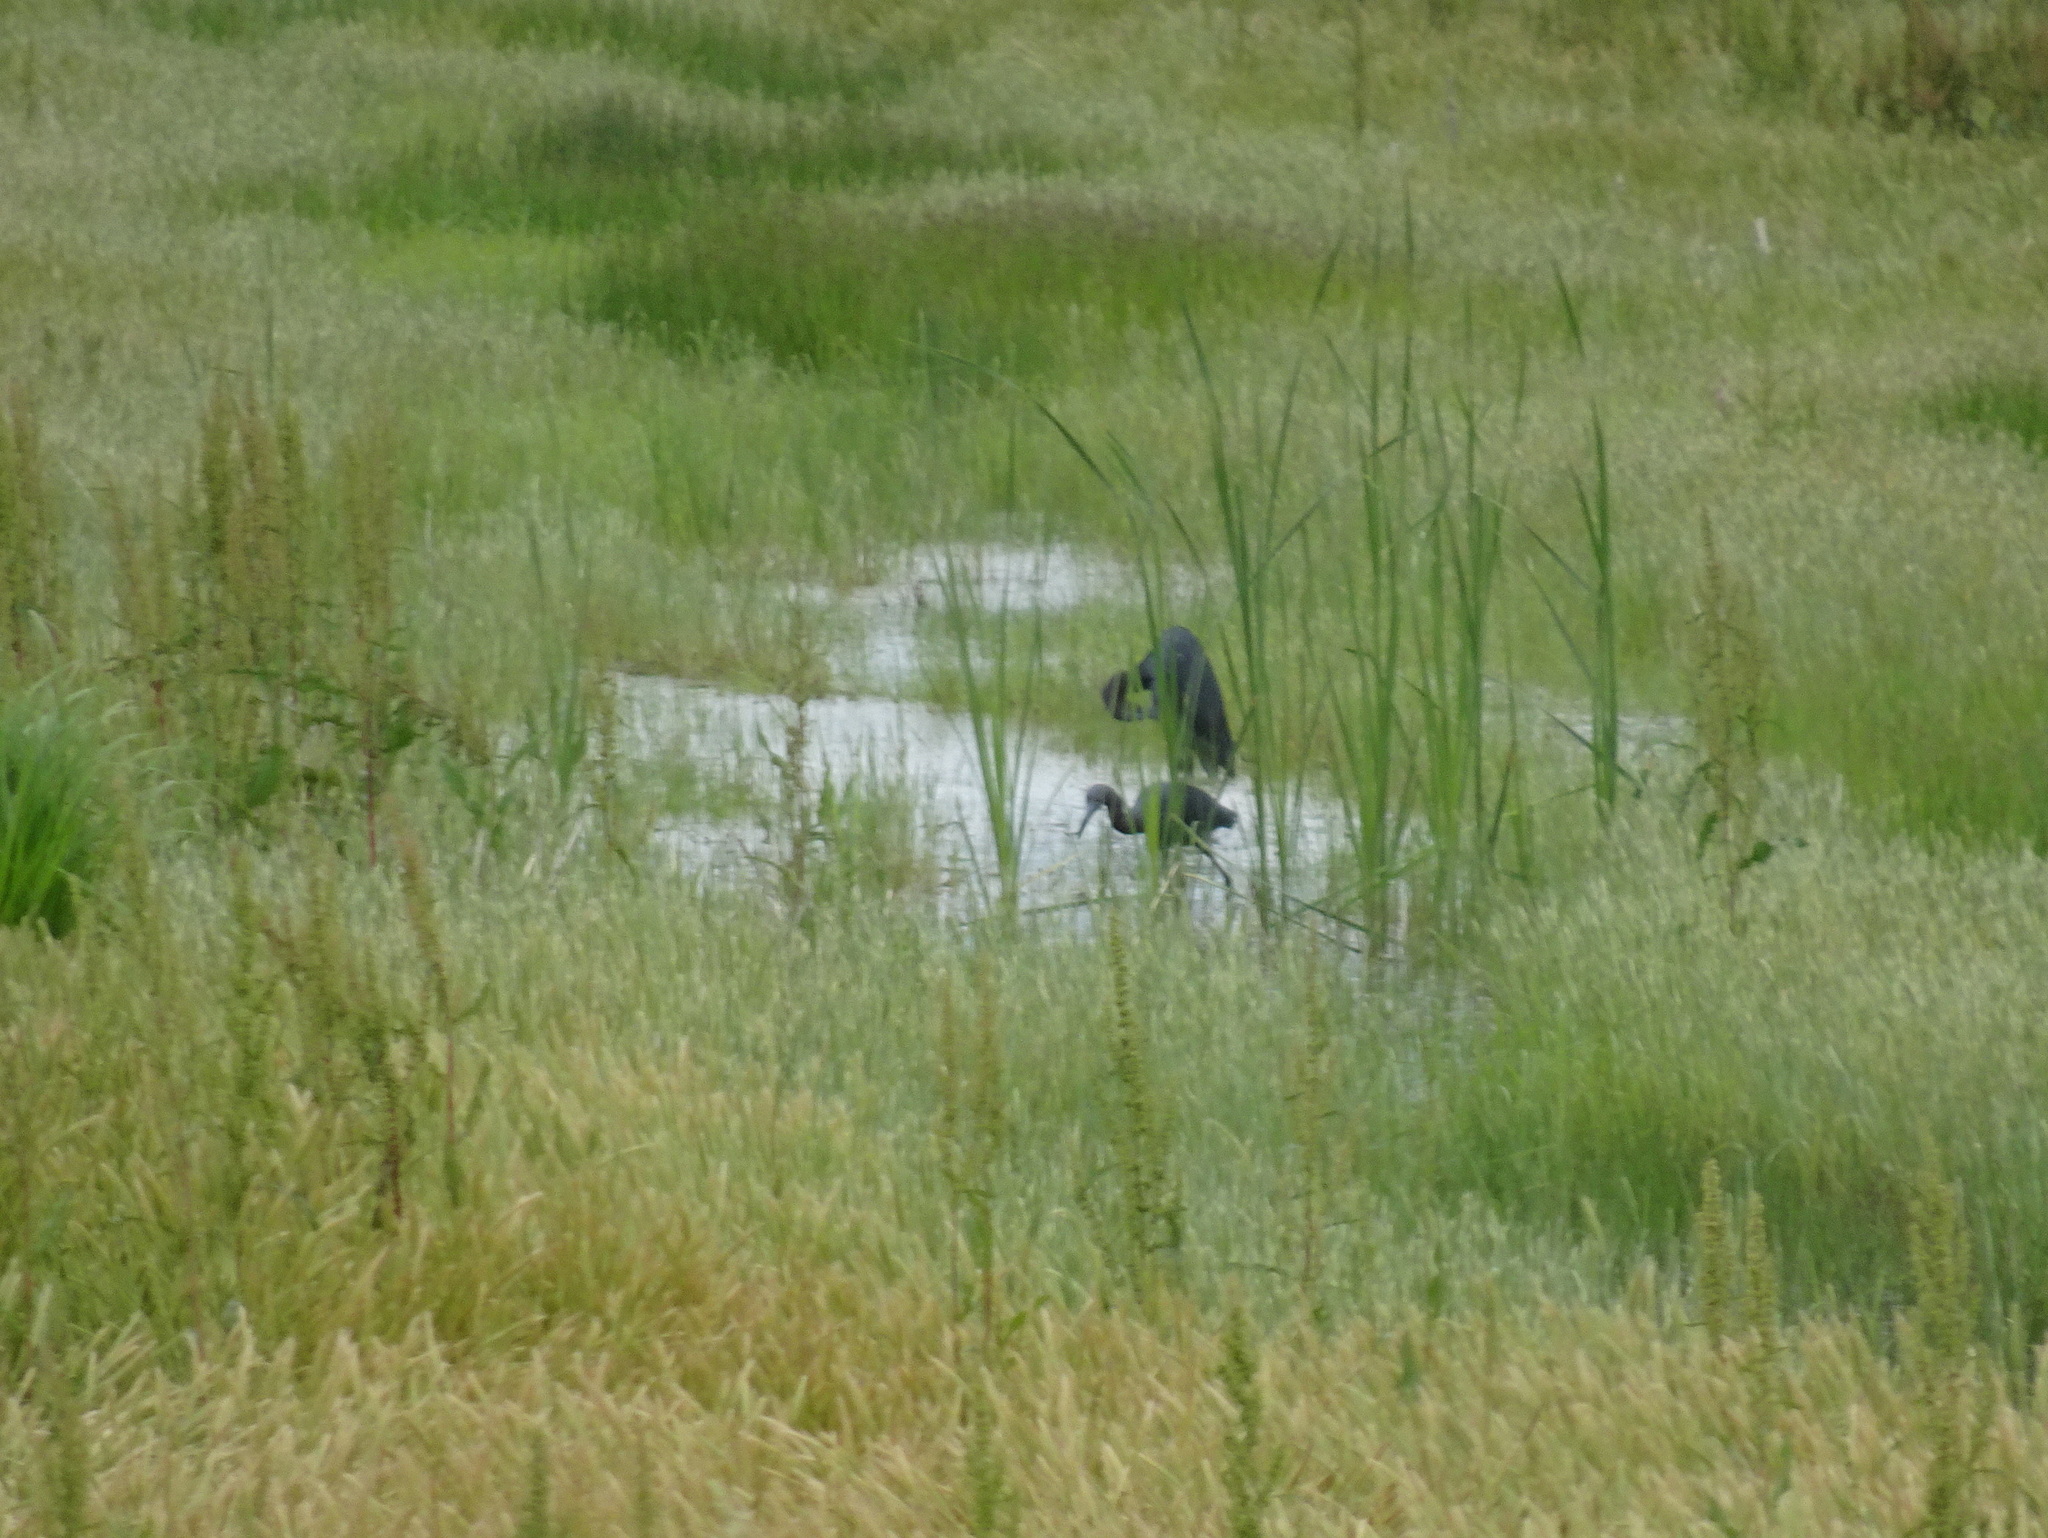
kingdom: Animalia
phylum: Chordata
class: Aves
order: Pelecaniformes
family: Ardeidae
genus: Egretta
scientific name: Egretta caerulea
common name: Little blue heron
